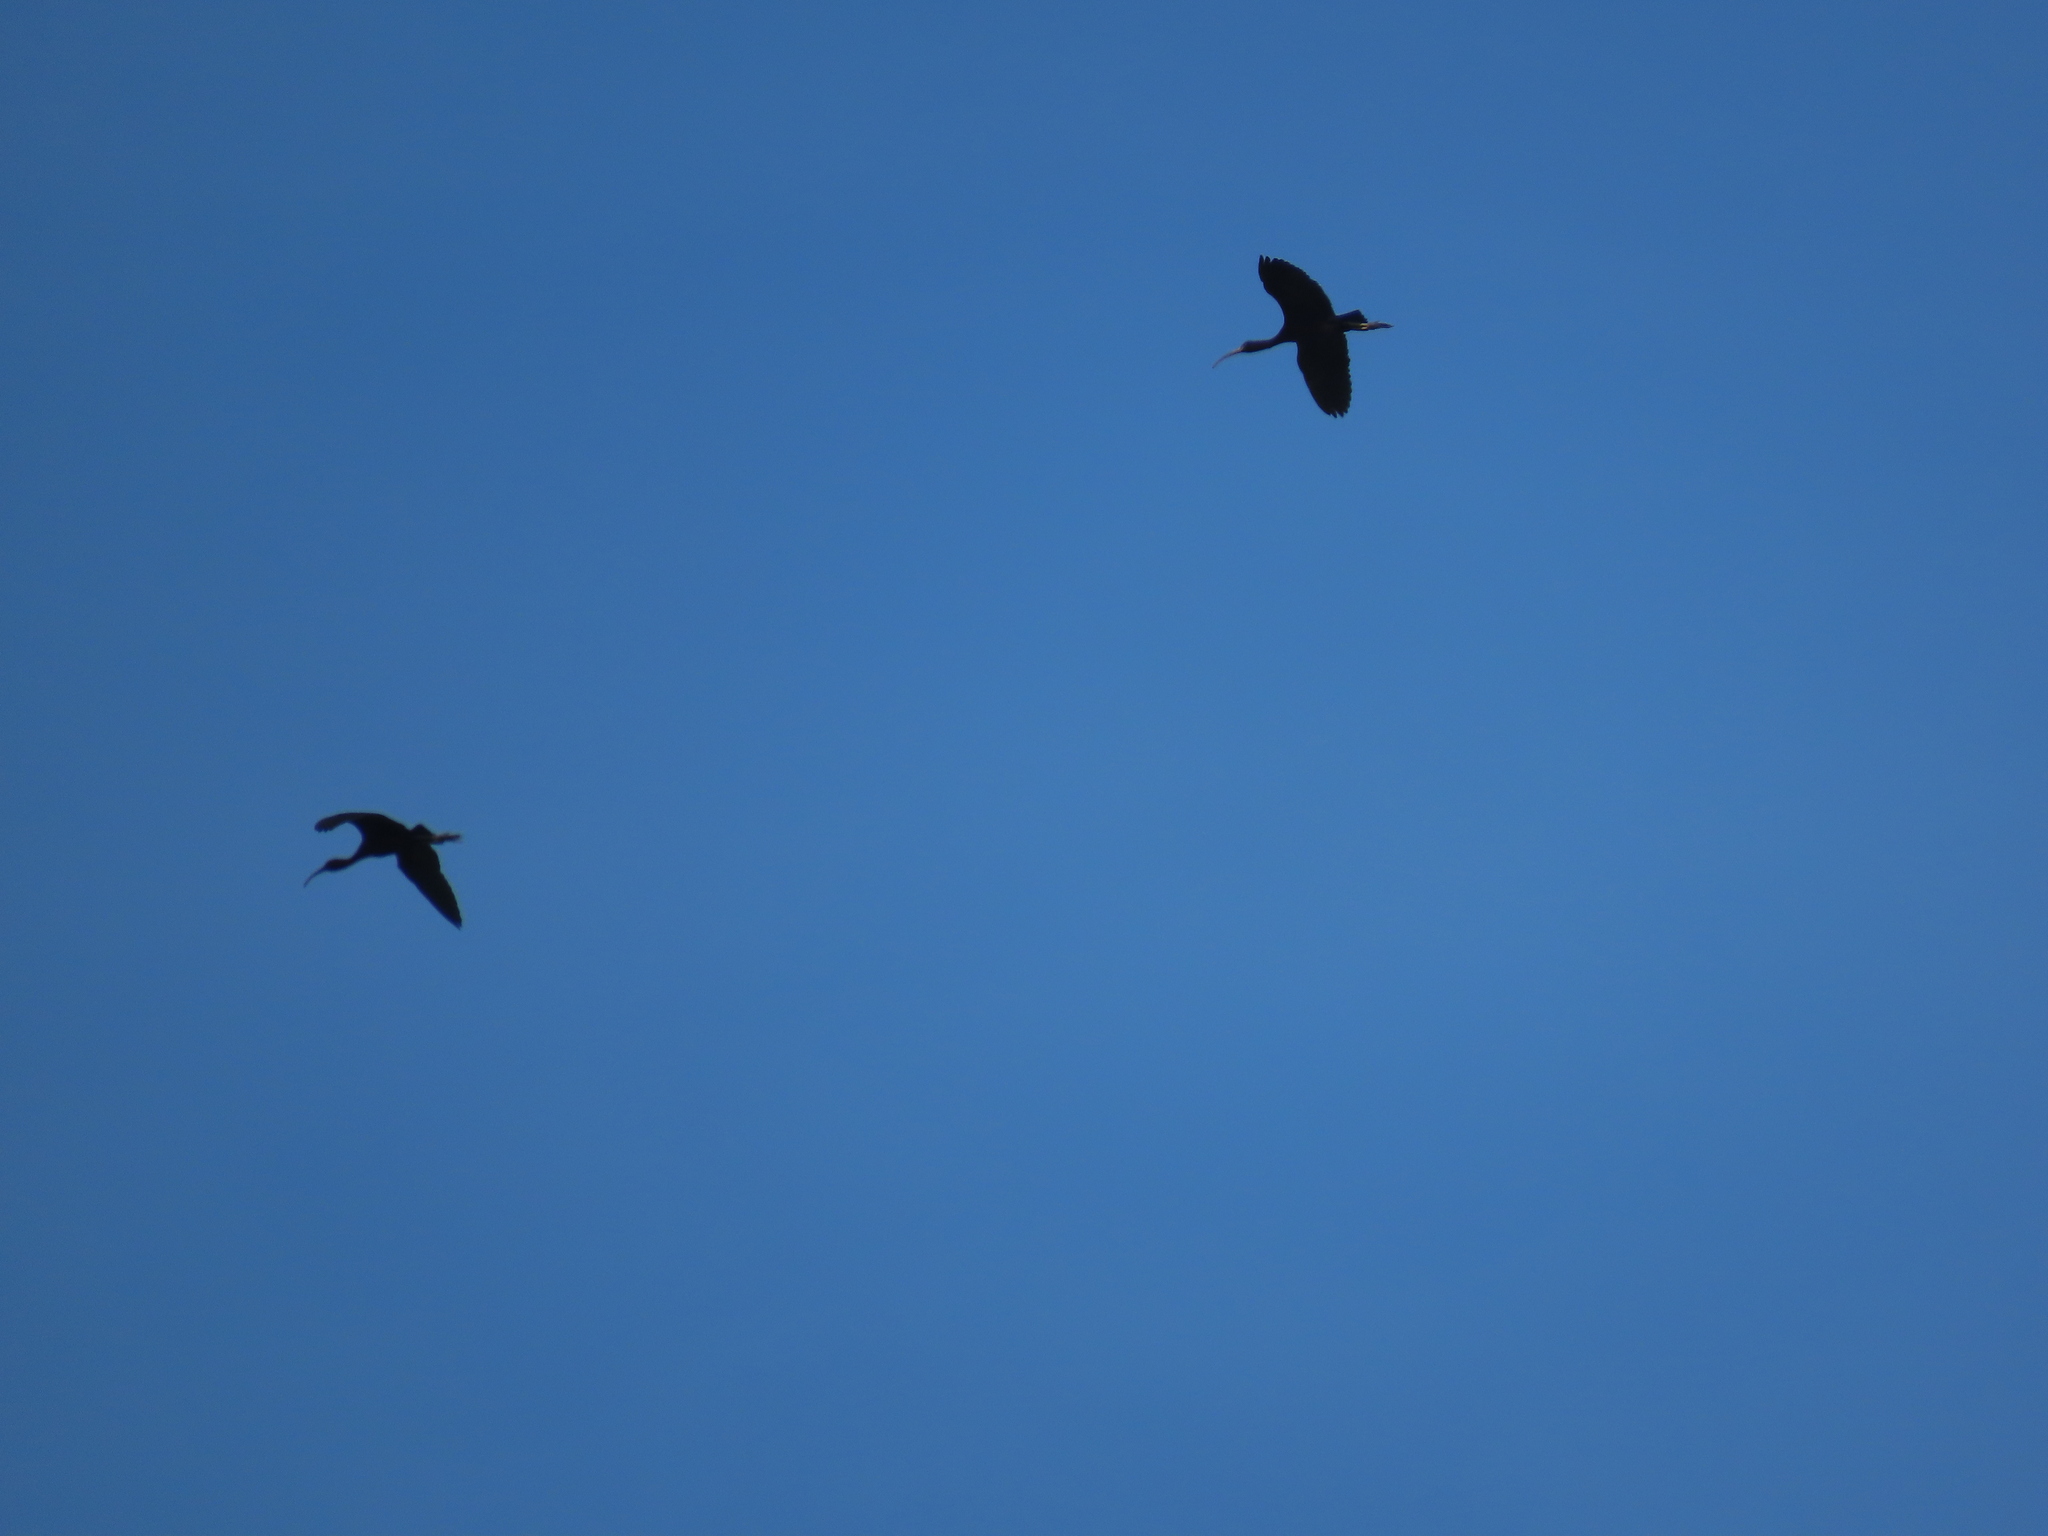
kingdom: Animalia
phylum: Chordata
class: Aves
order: Pelecaniformes
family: Threskiornithidae
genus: Plegadis
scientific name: Plegadis falcinellus
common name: Glossy ibis
